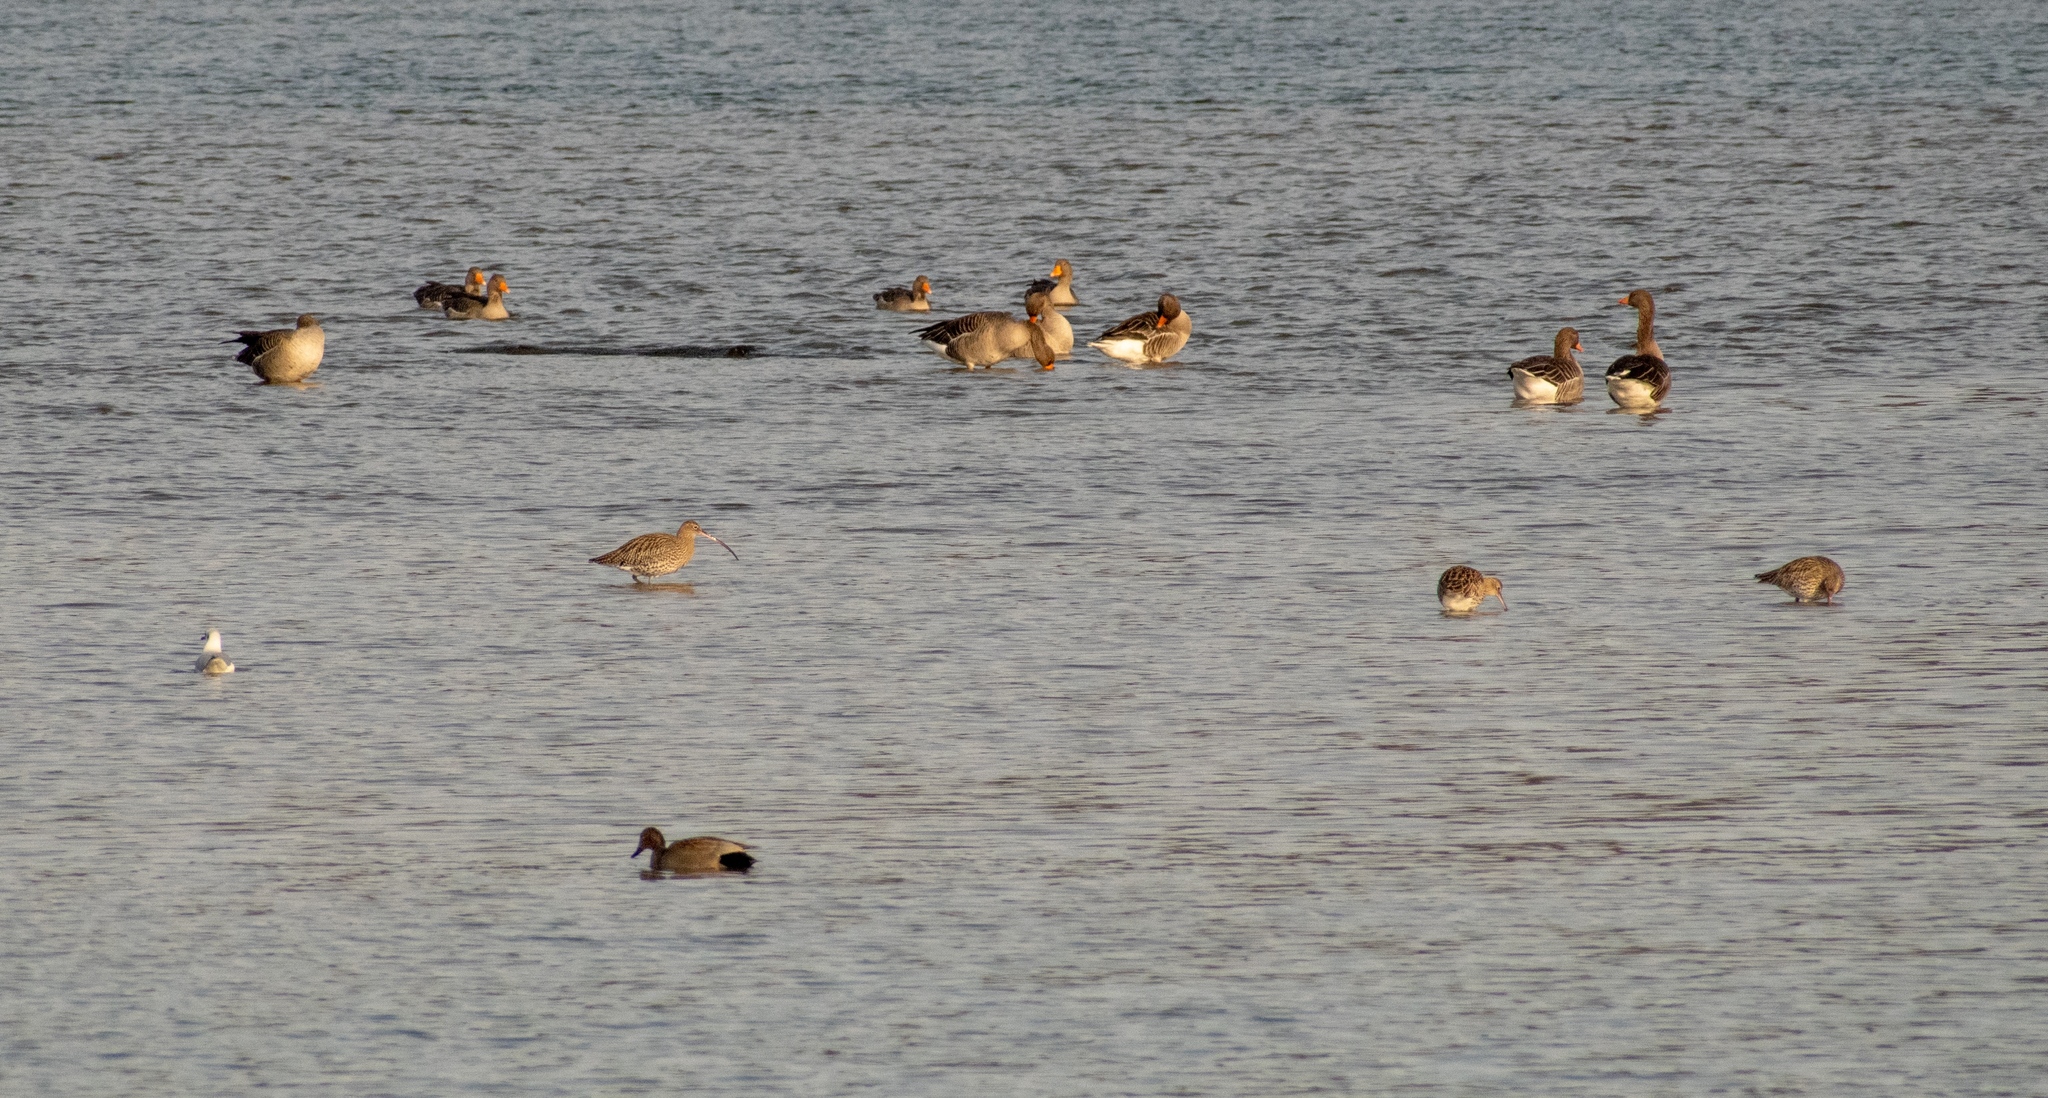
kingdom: Animalia
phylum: Chordata
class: Aves
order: Anseriformes
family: Anatidae
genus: Anser
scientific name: Anser anser
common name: Greylag goose
